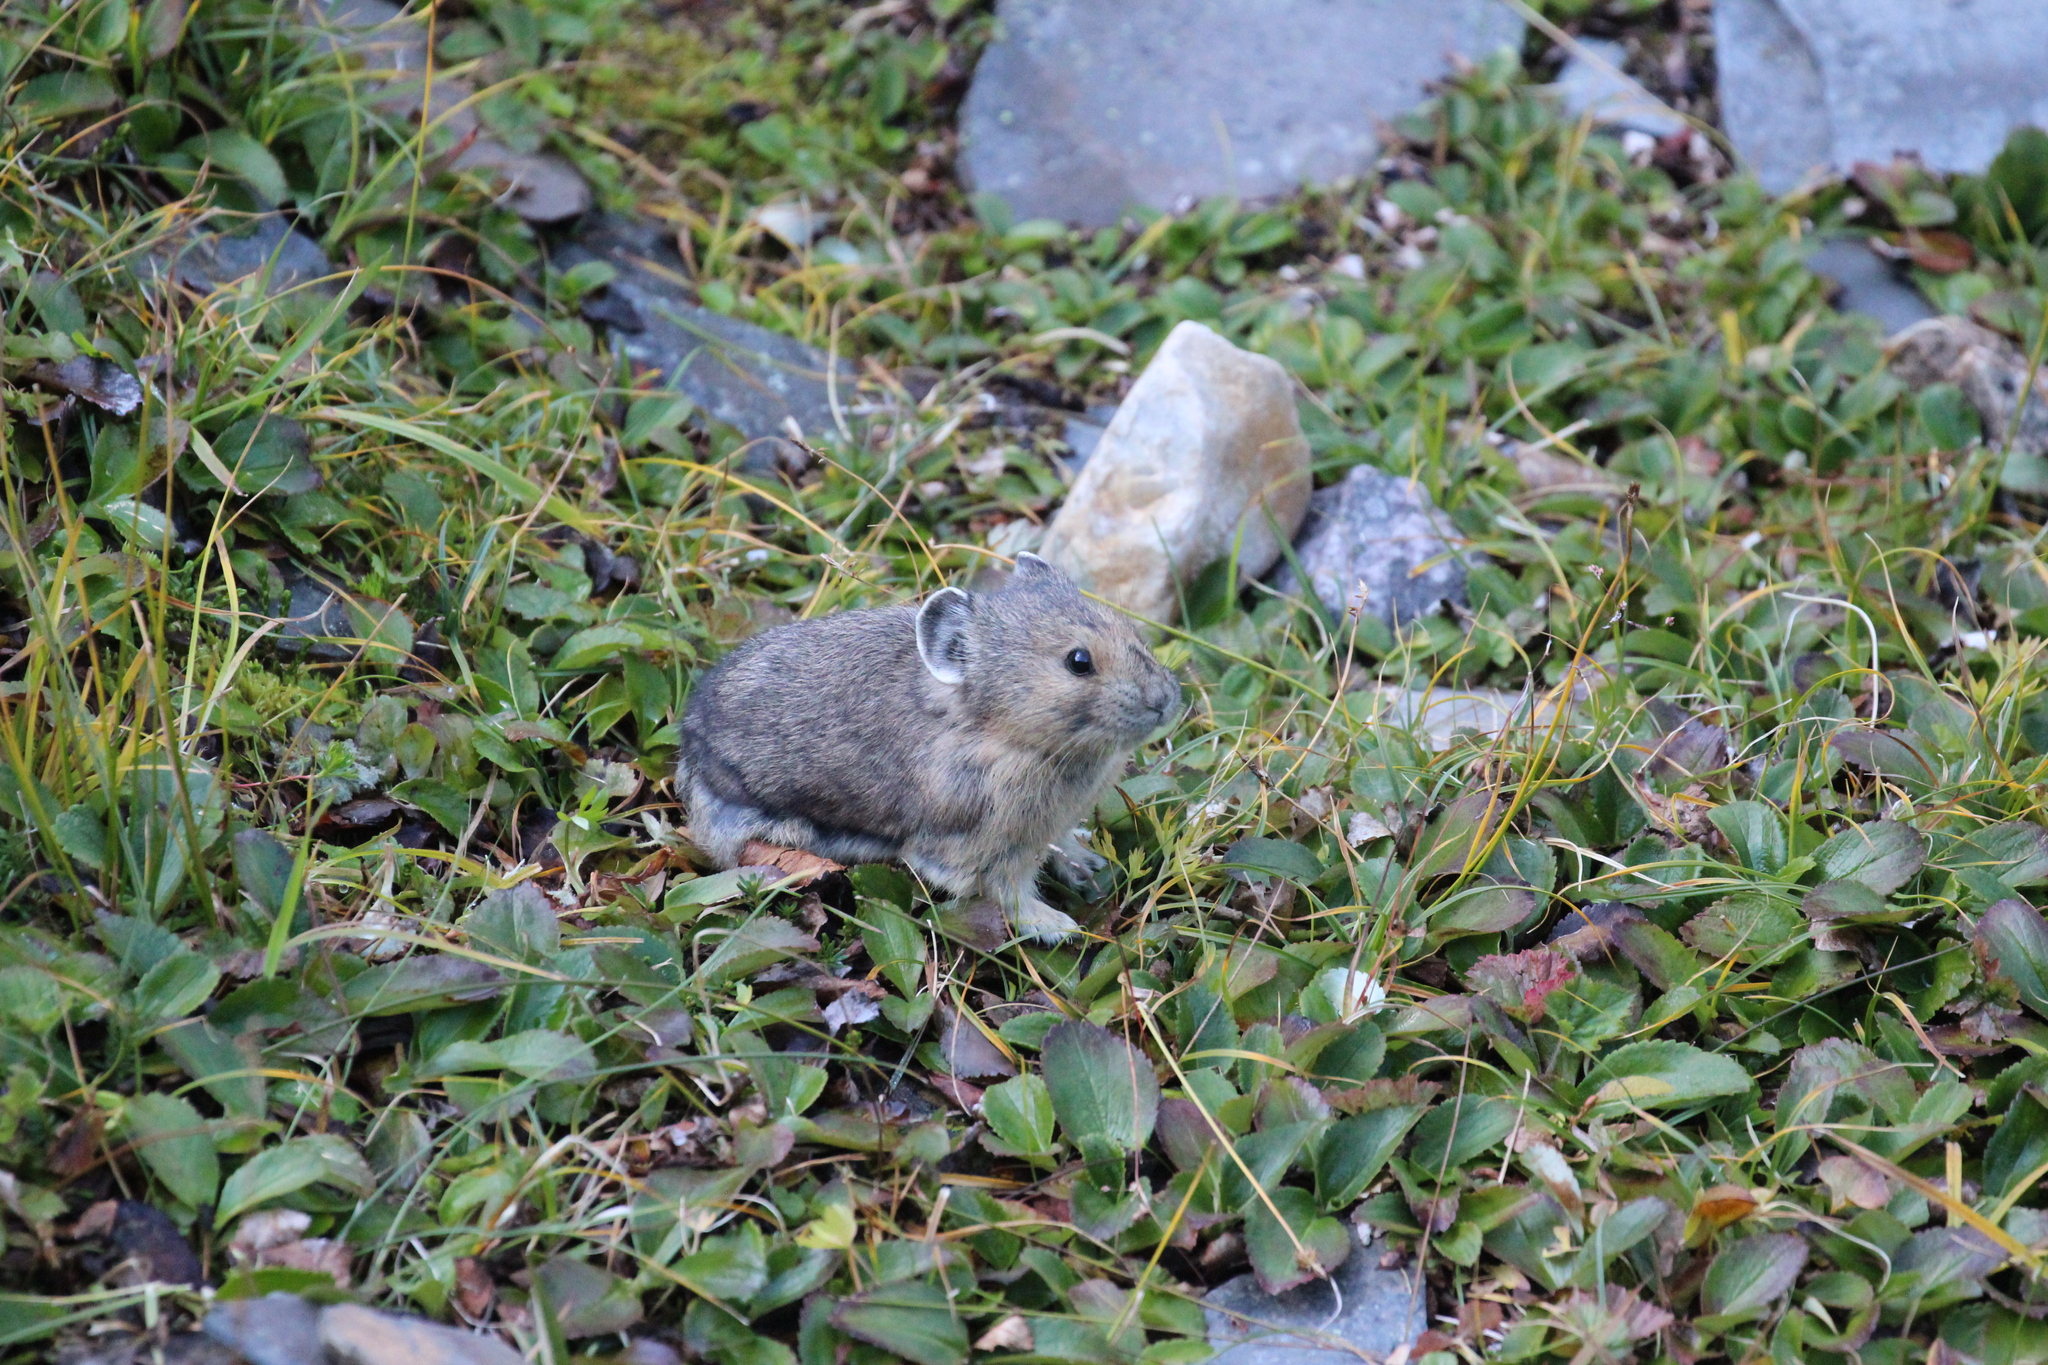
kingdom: Animalia
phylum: Chordata
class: Mammalia
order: Lagomorpha
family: Ochotonidae
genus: Ochotona
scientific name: Ochotona princeps
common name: American pika
